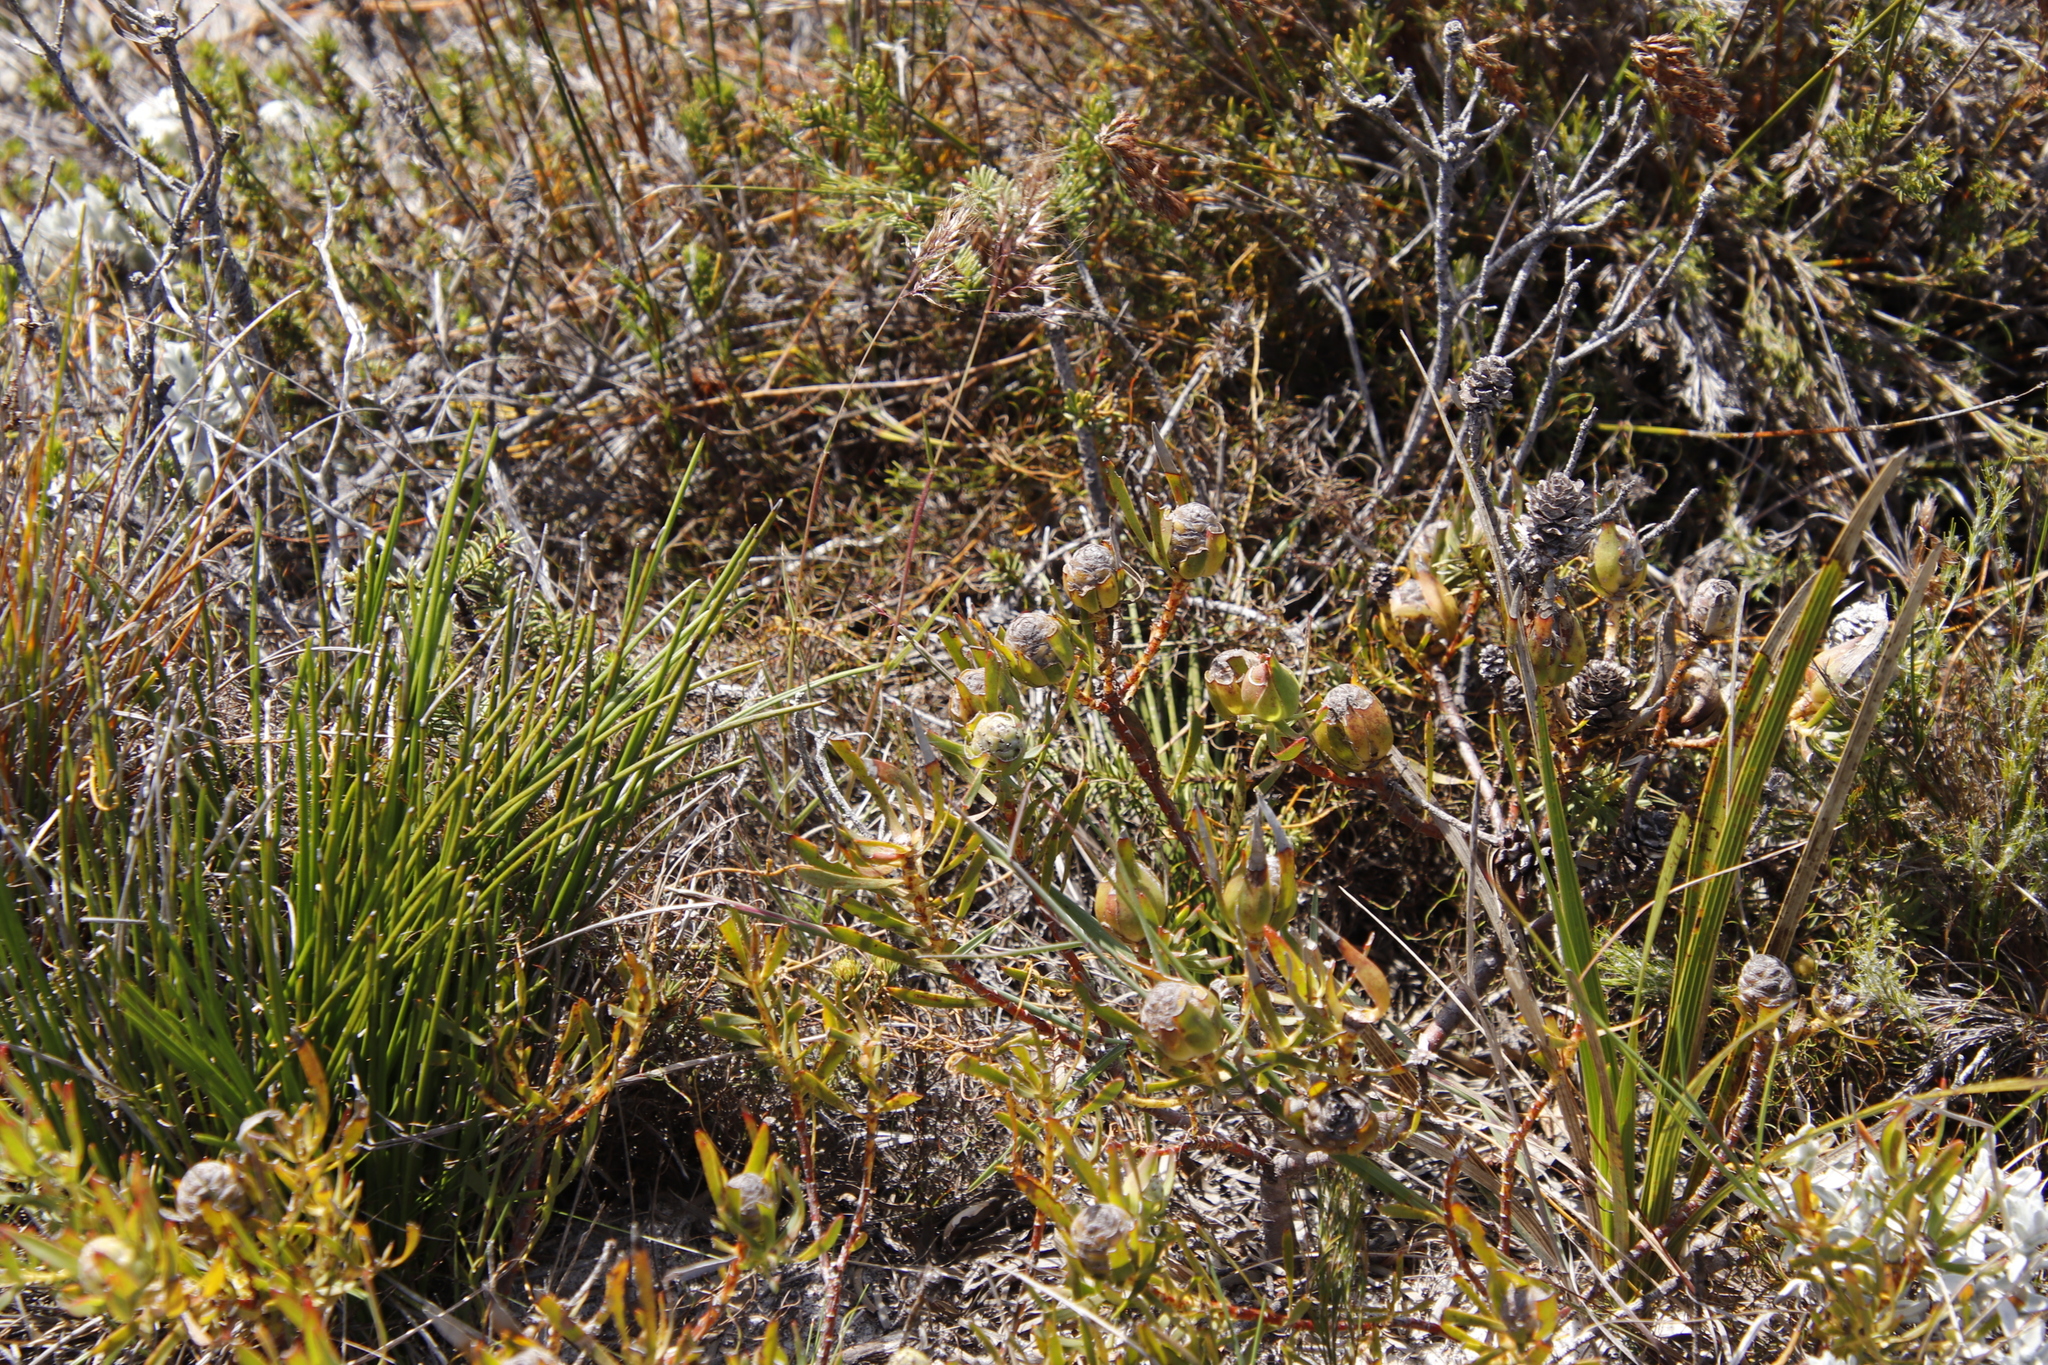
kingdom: Plantae
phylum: Tracheophyta
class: Magnoliopsida
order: Proteales
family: Proteaceae
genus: Leucadendron
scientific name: Leucadendron salignum
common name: Common sunshine conebush
